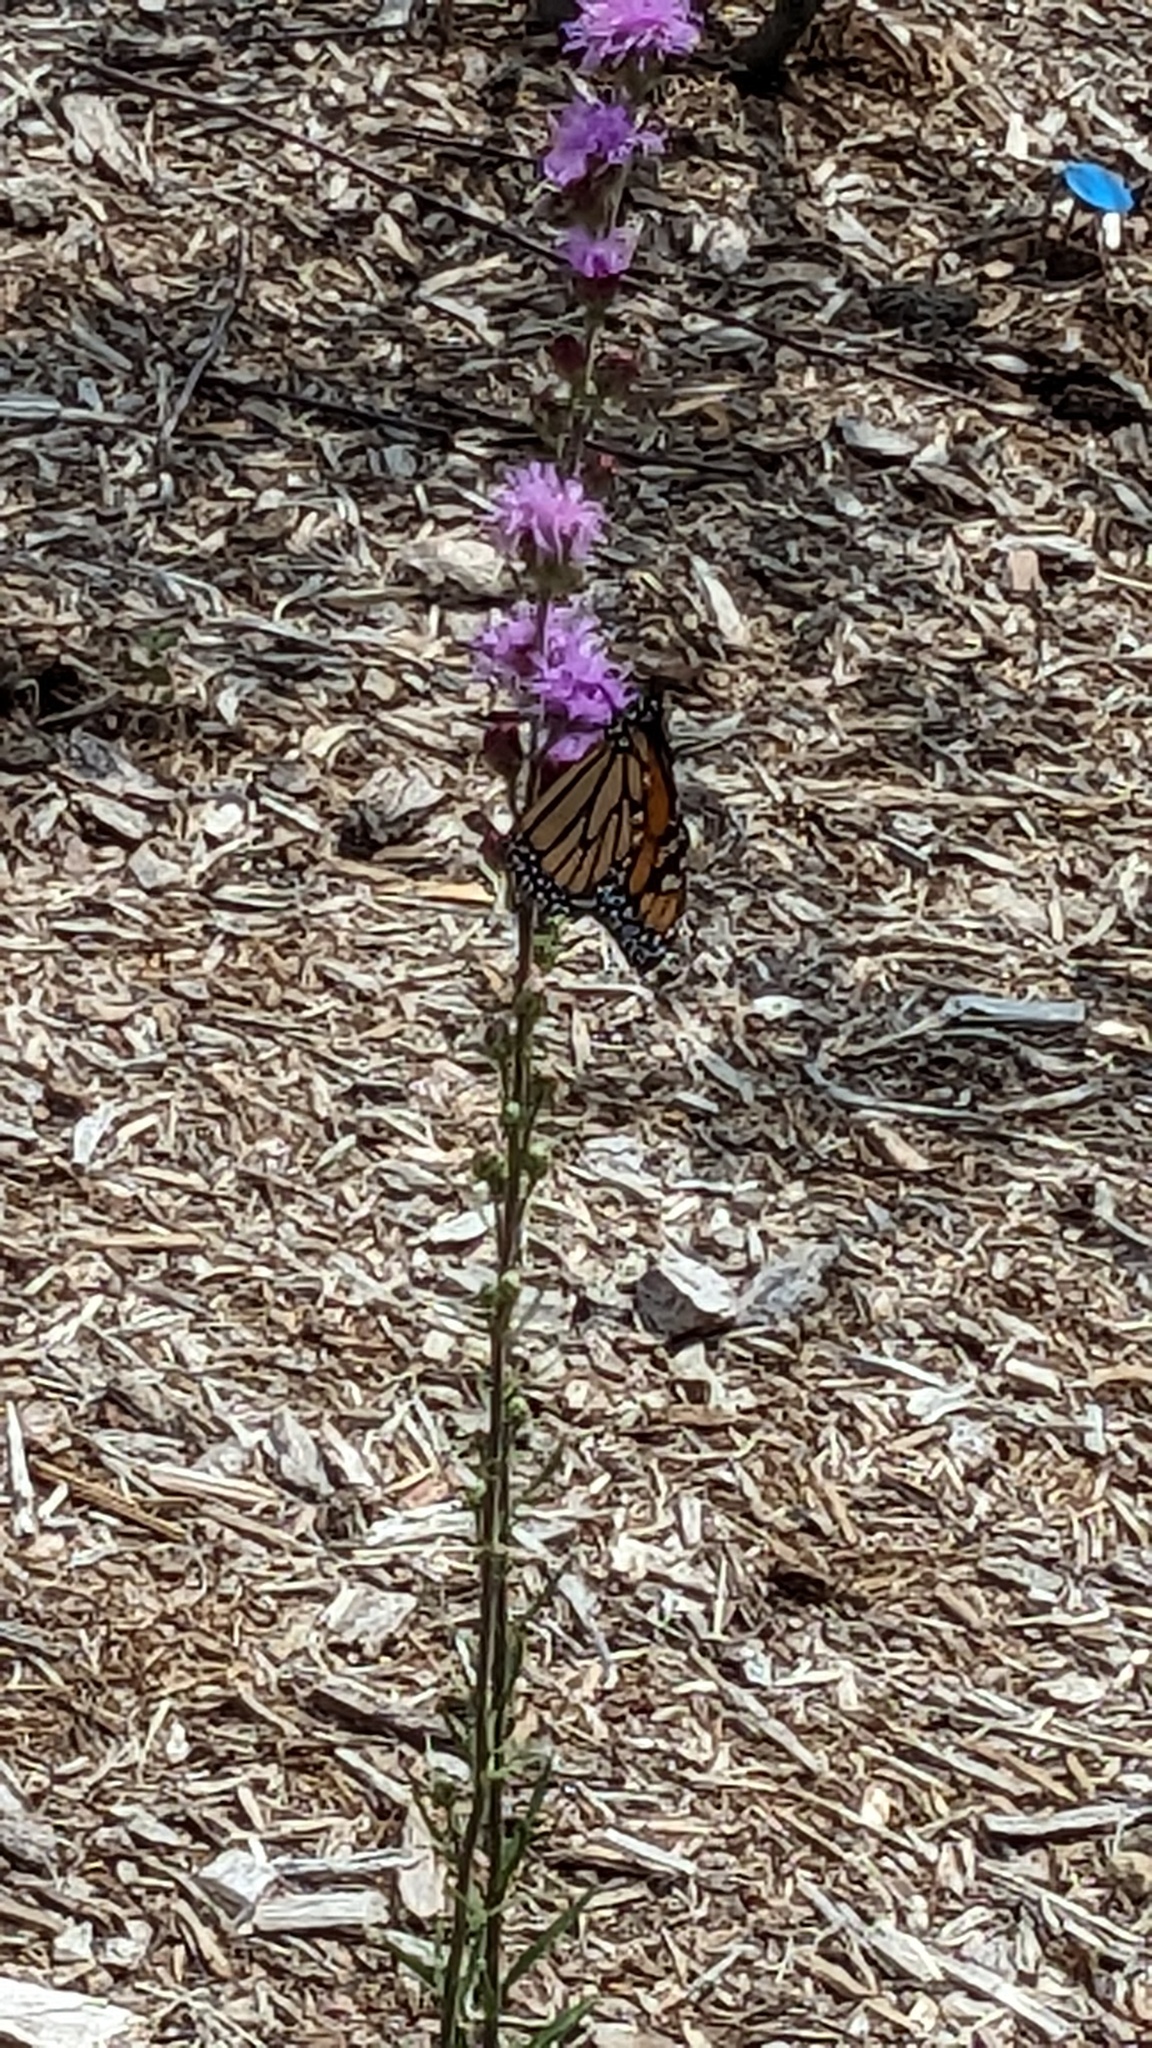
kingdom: Animalia
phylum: Arthropoda
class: Insecta
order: Lepidoptera
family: Nymphalidae
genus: Danaus
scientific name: Danaus plexippus
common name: Monarch
